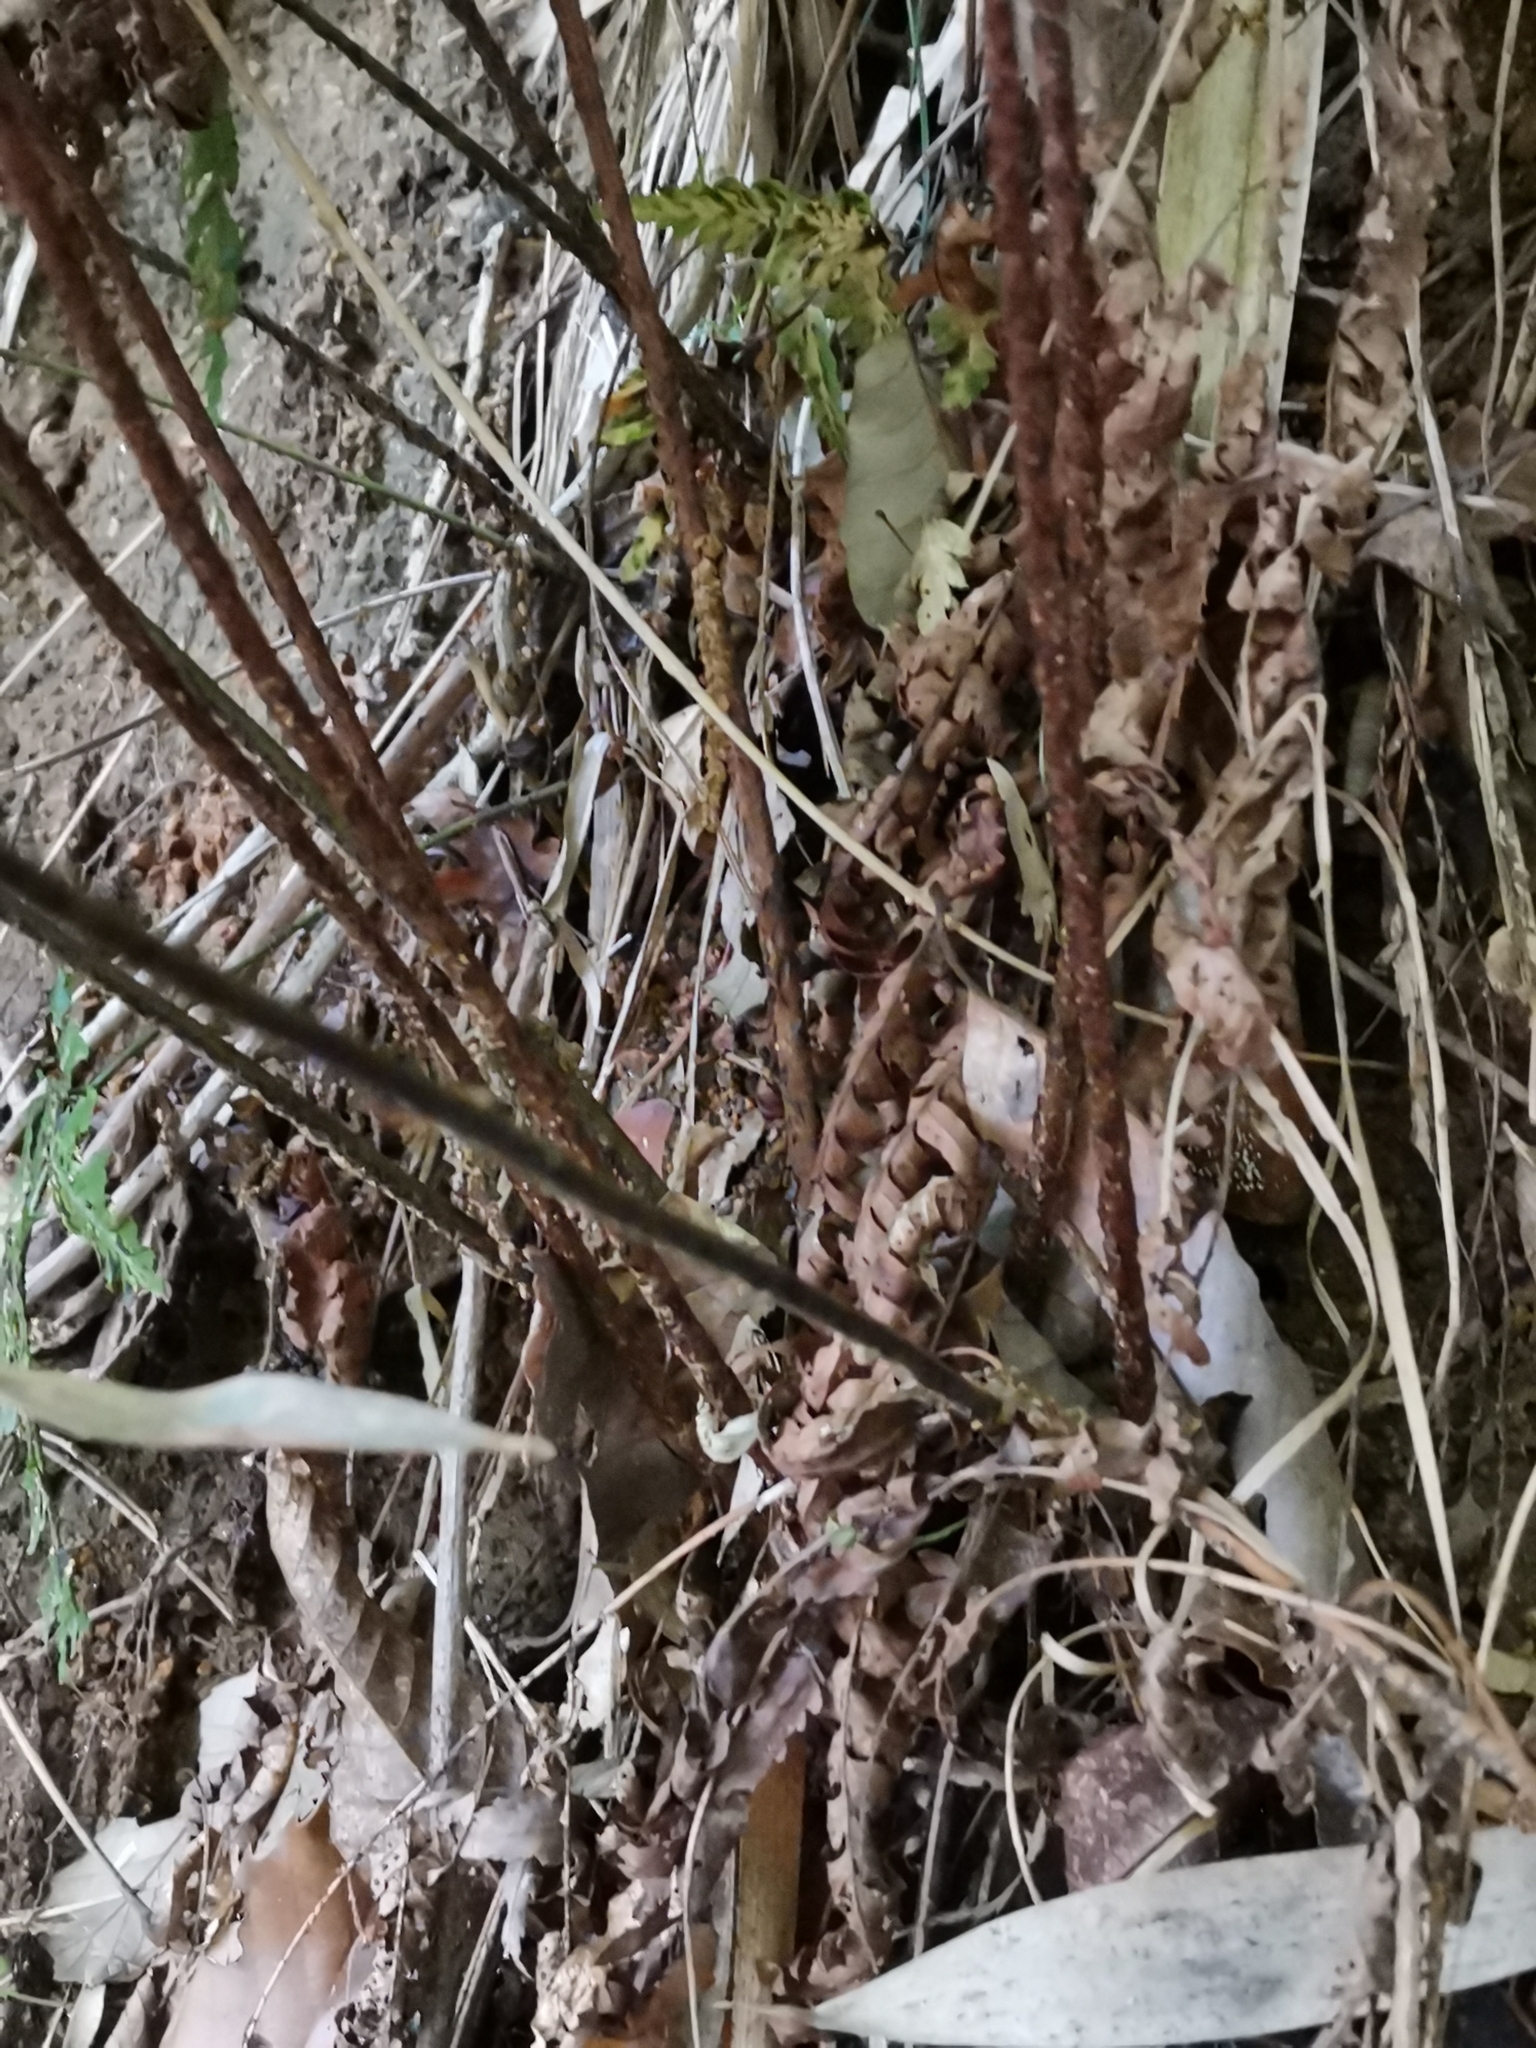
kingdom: Plantae
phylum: Tracheophyta
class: Polypodiopsida
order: Polypodiales
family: Dryopteridaceae
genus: Dryopteris
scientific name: Dryopteris erythrosora
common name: Autumn fern
